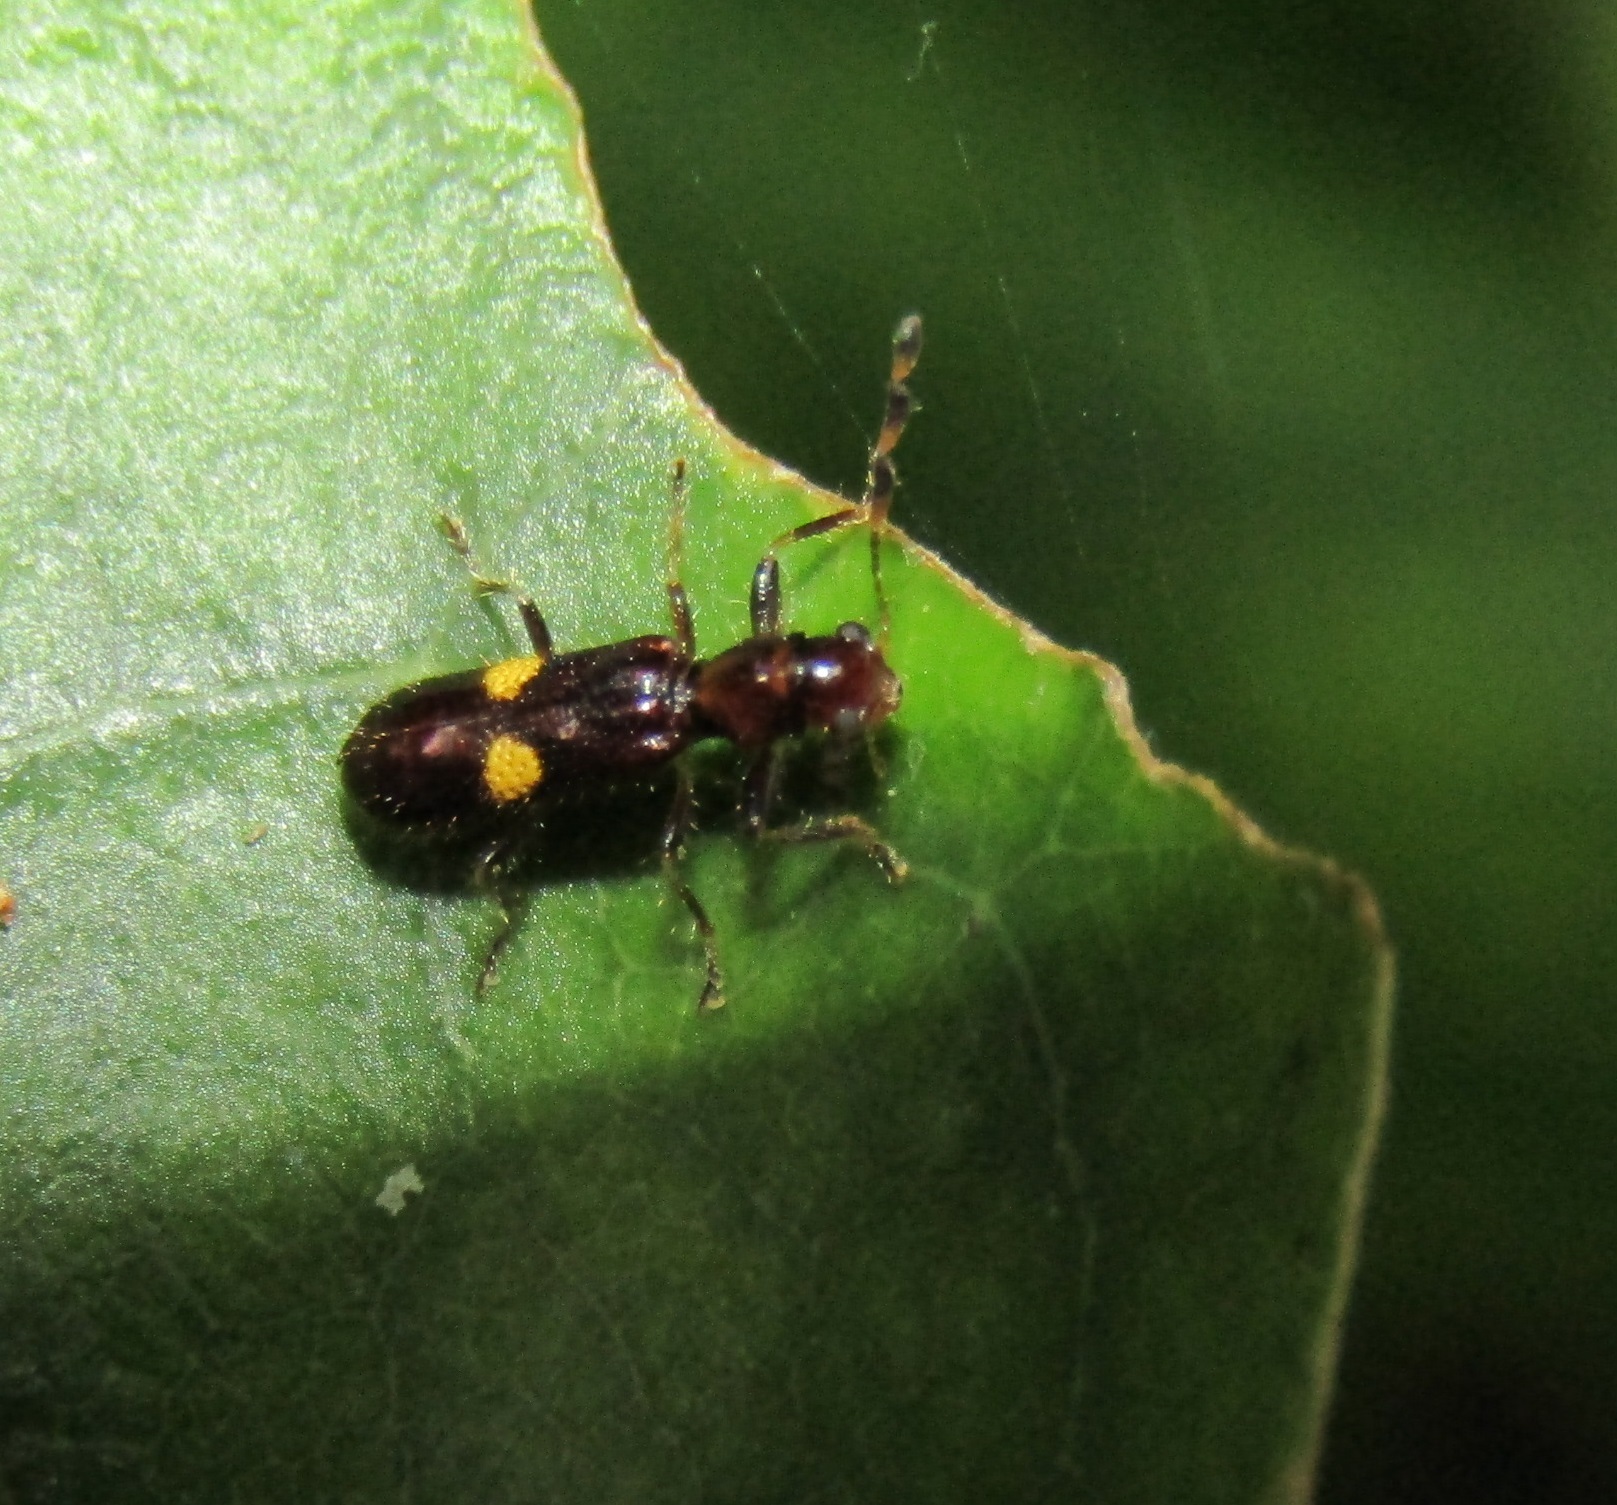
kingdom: Animalia
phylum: Arthropoda
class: Insecta
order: Coleoptera
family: Cleridae
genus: Phymatophaea
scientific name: Phymatophaea hudsoni
